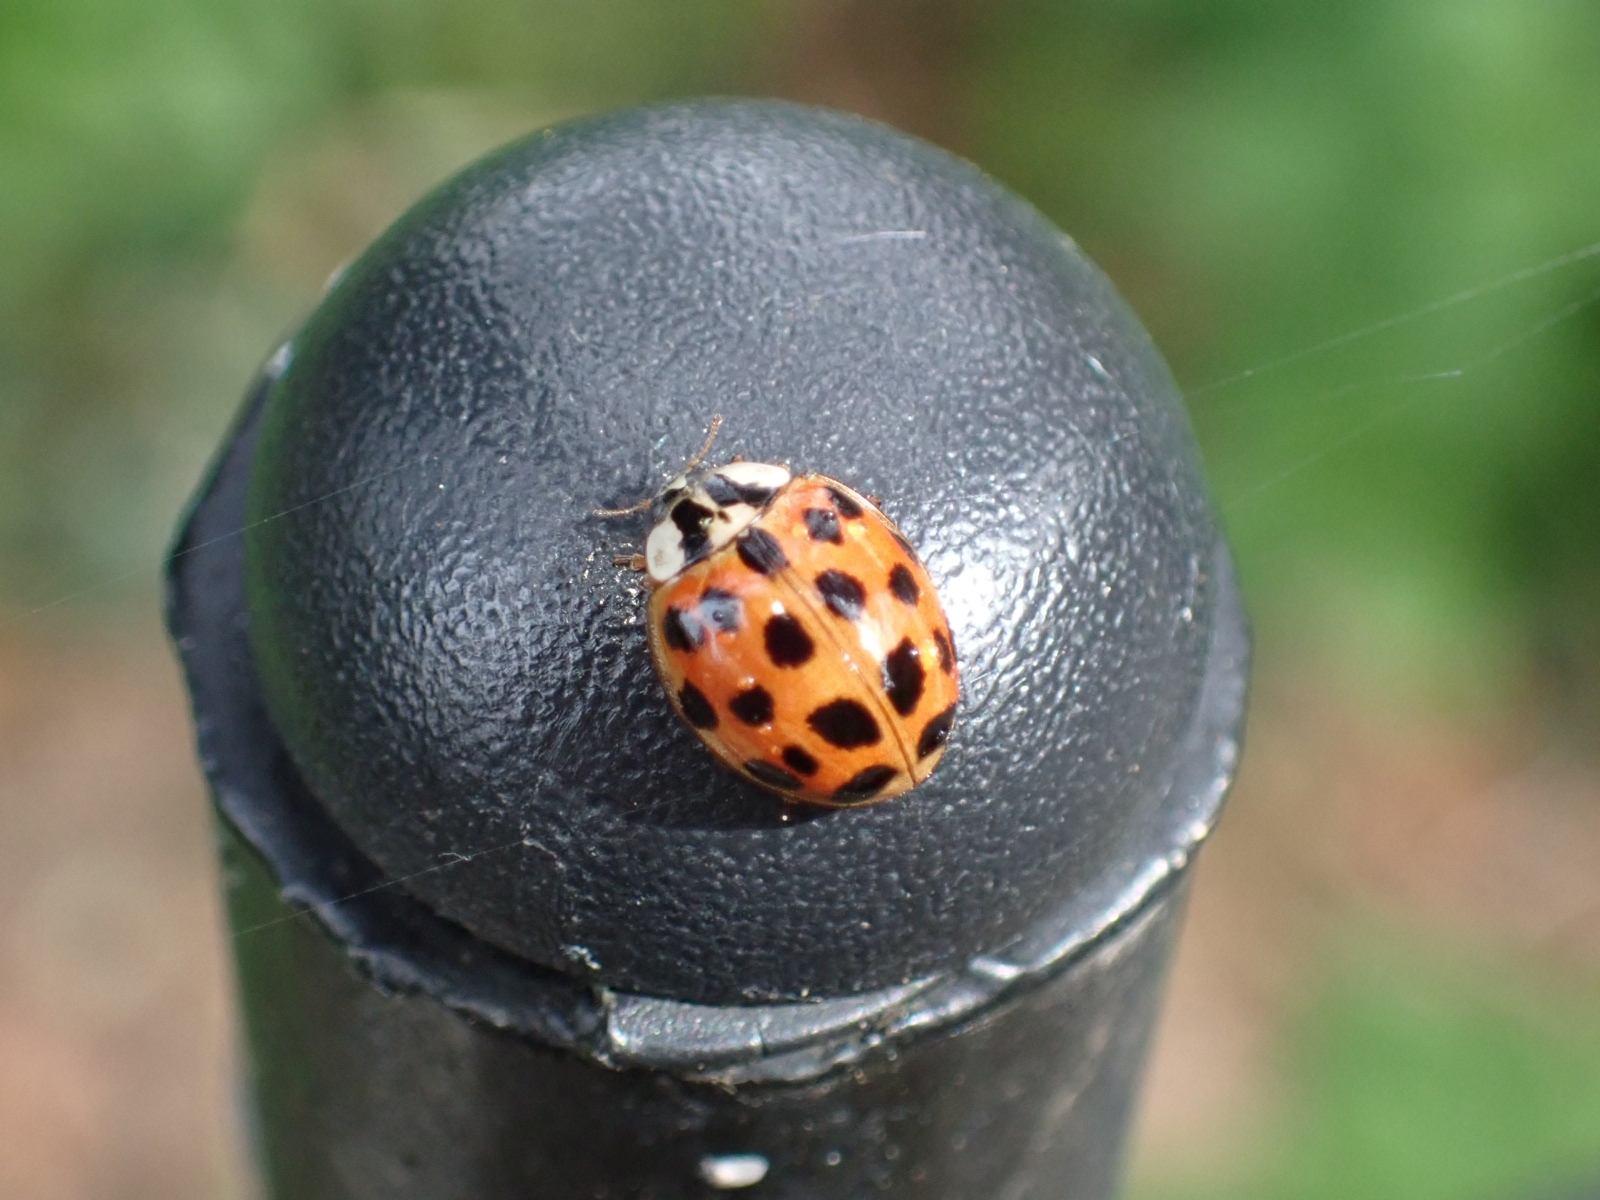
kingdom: Animalia
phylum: Arthropoda
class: Insecta
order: Coleoptera
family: Coccinellidae
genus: Harmonia
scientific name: Harmonia axyridis
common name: Harlequin ladybird
